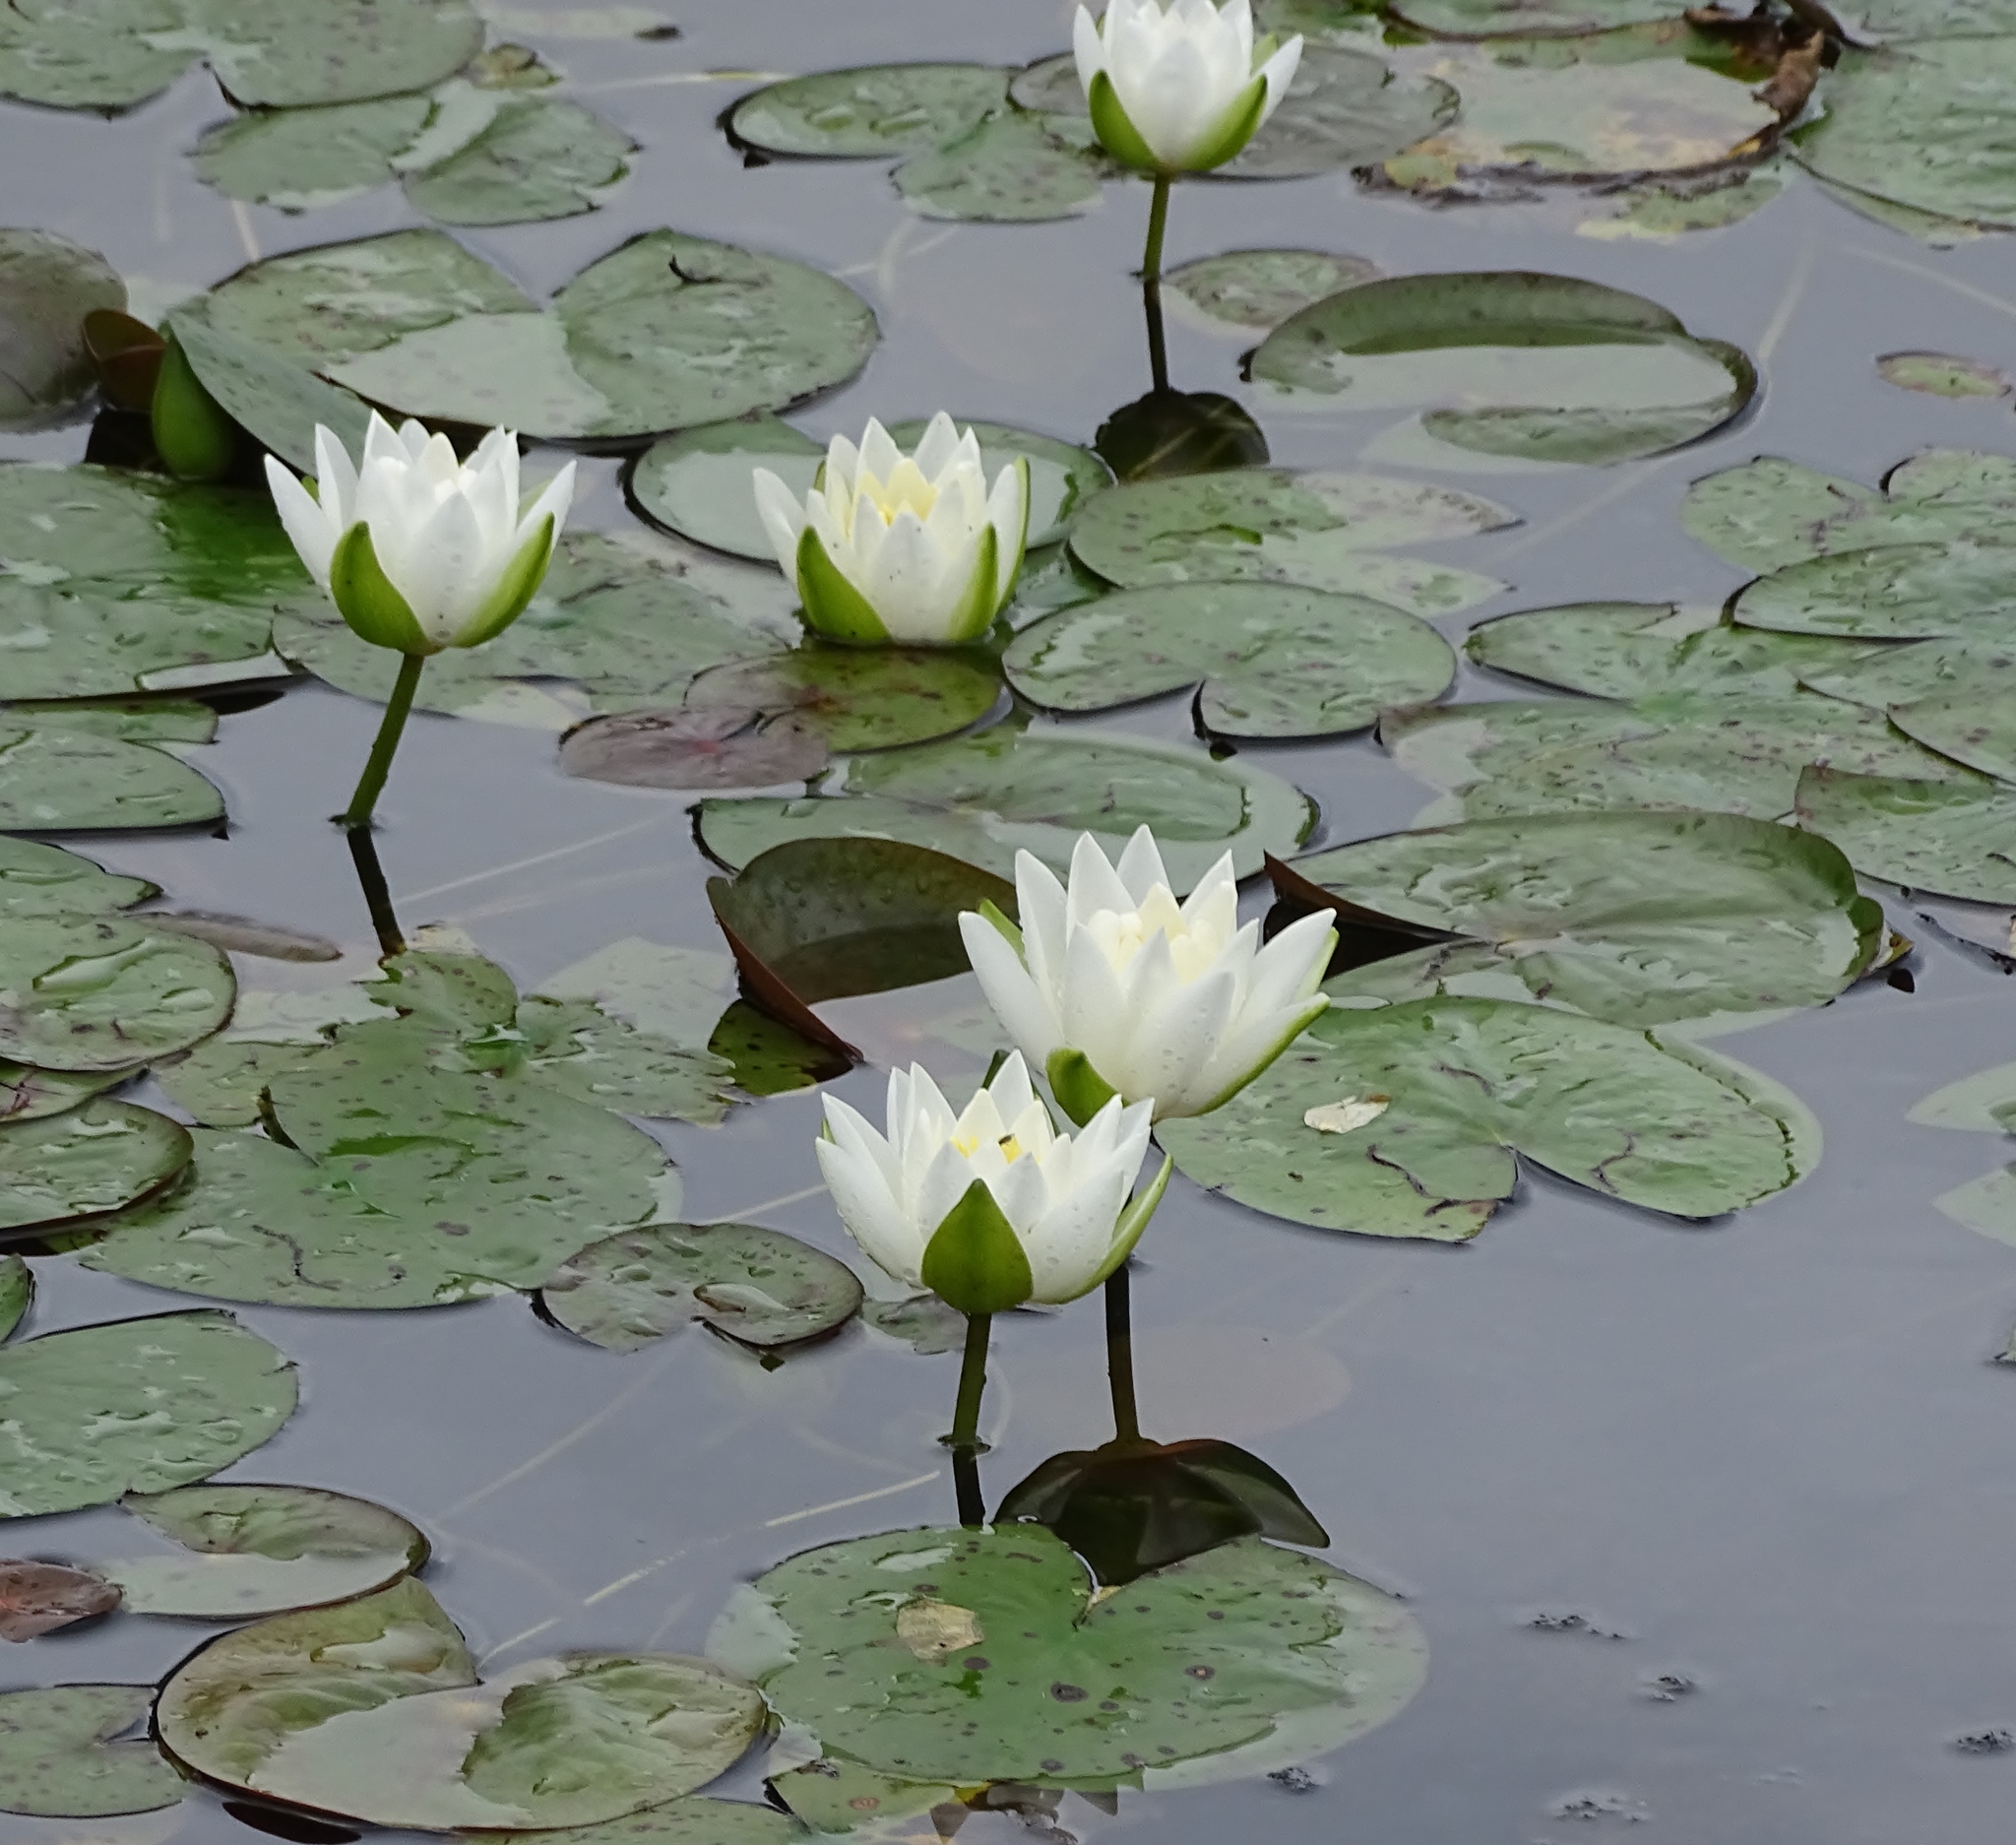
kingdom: Plantae
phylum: Tracheophyta
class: Magnoliopsida
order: Nymphaeales
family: Nymphaeaceae
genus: Nymphaea
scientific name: Nymphaea odorata
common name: Fragrant water-lily
